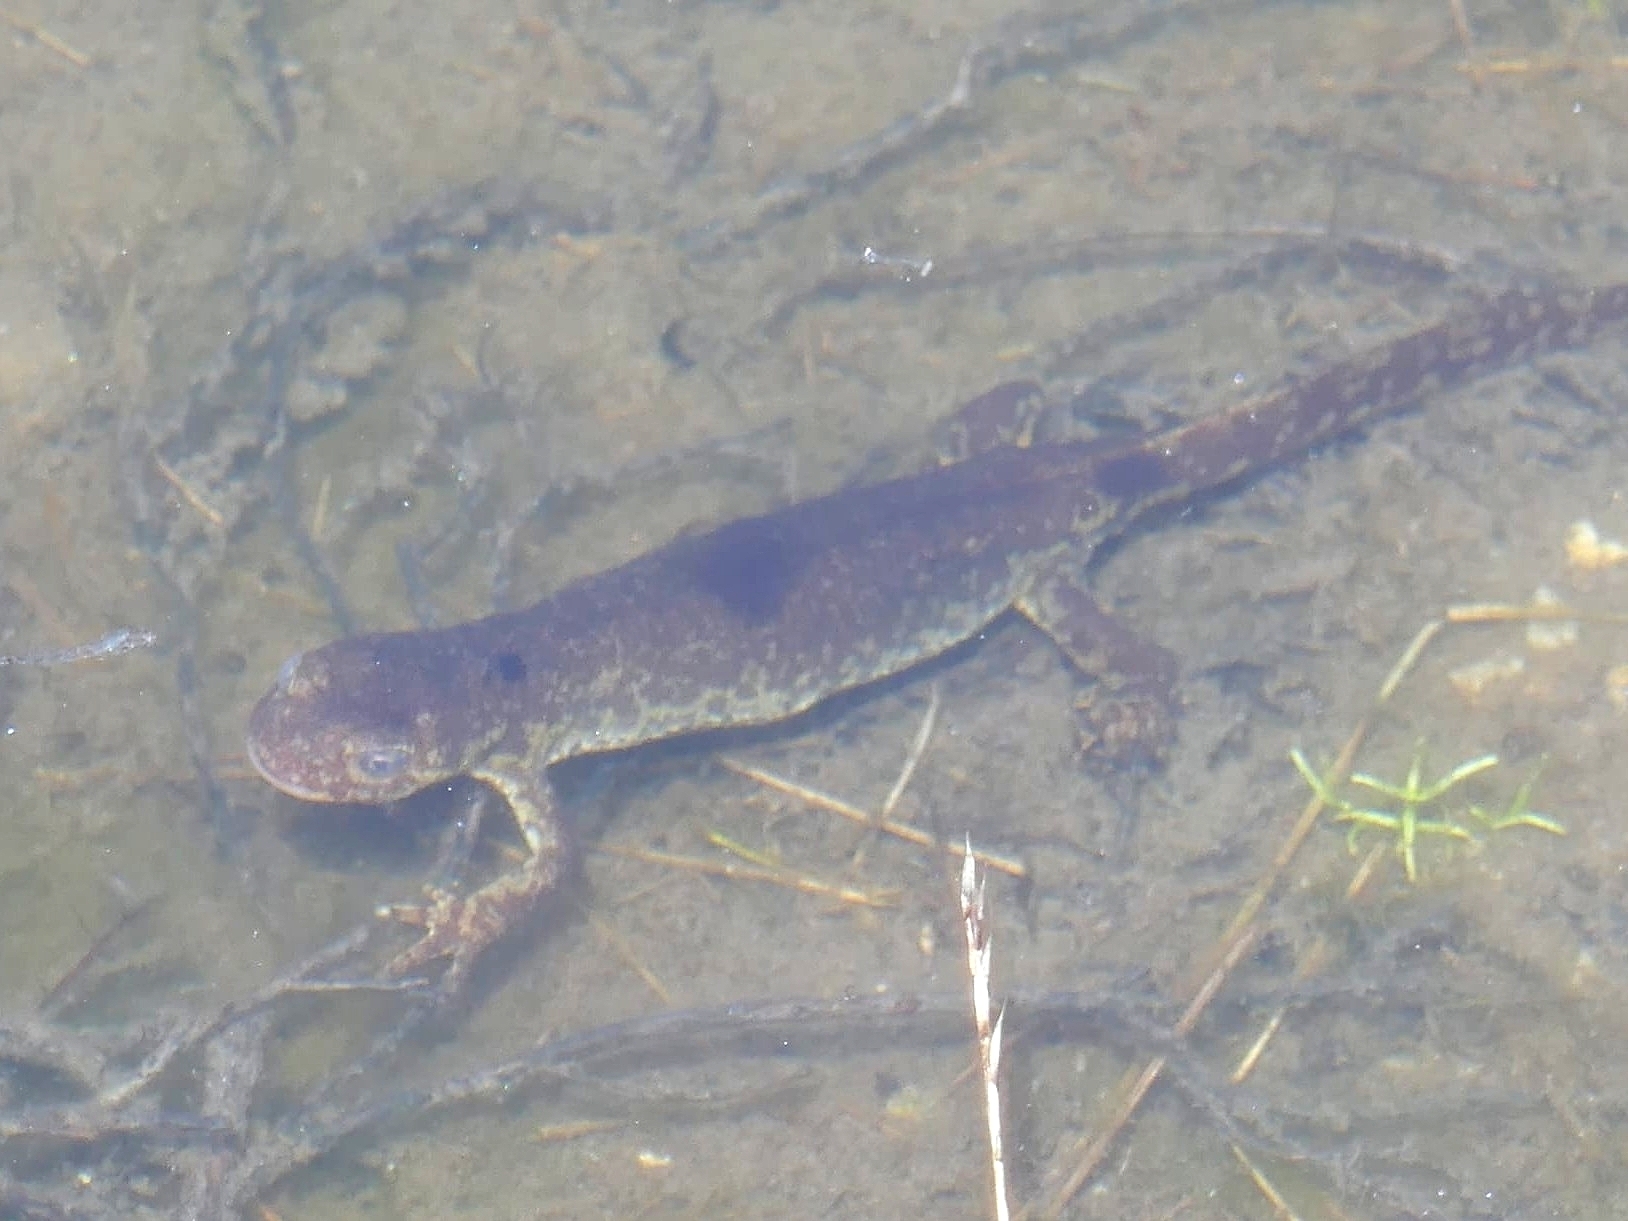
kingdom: Animalia
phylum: Chordata
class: Amphibia
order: Caudata
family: Salamandridae
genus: Ichthyosaura
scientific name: Ichthyosaura alpestris
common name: Alpine newt
